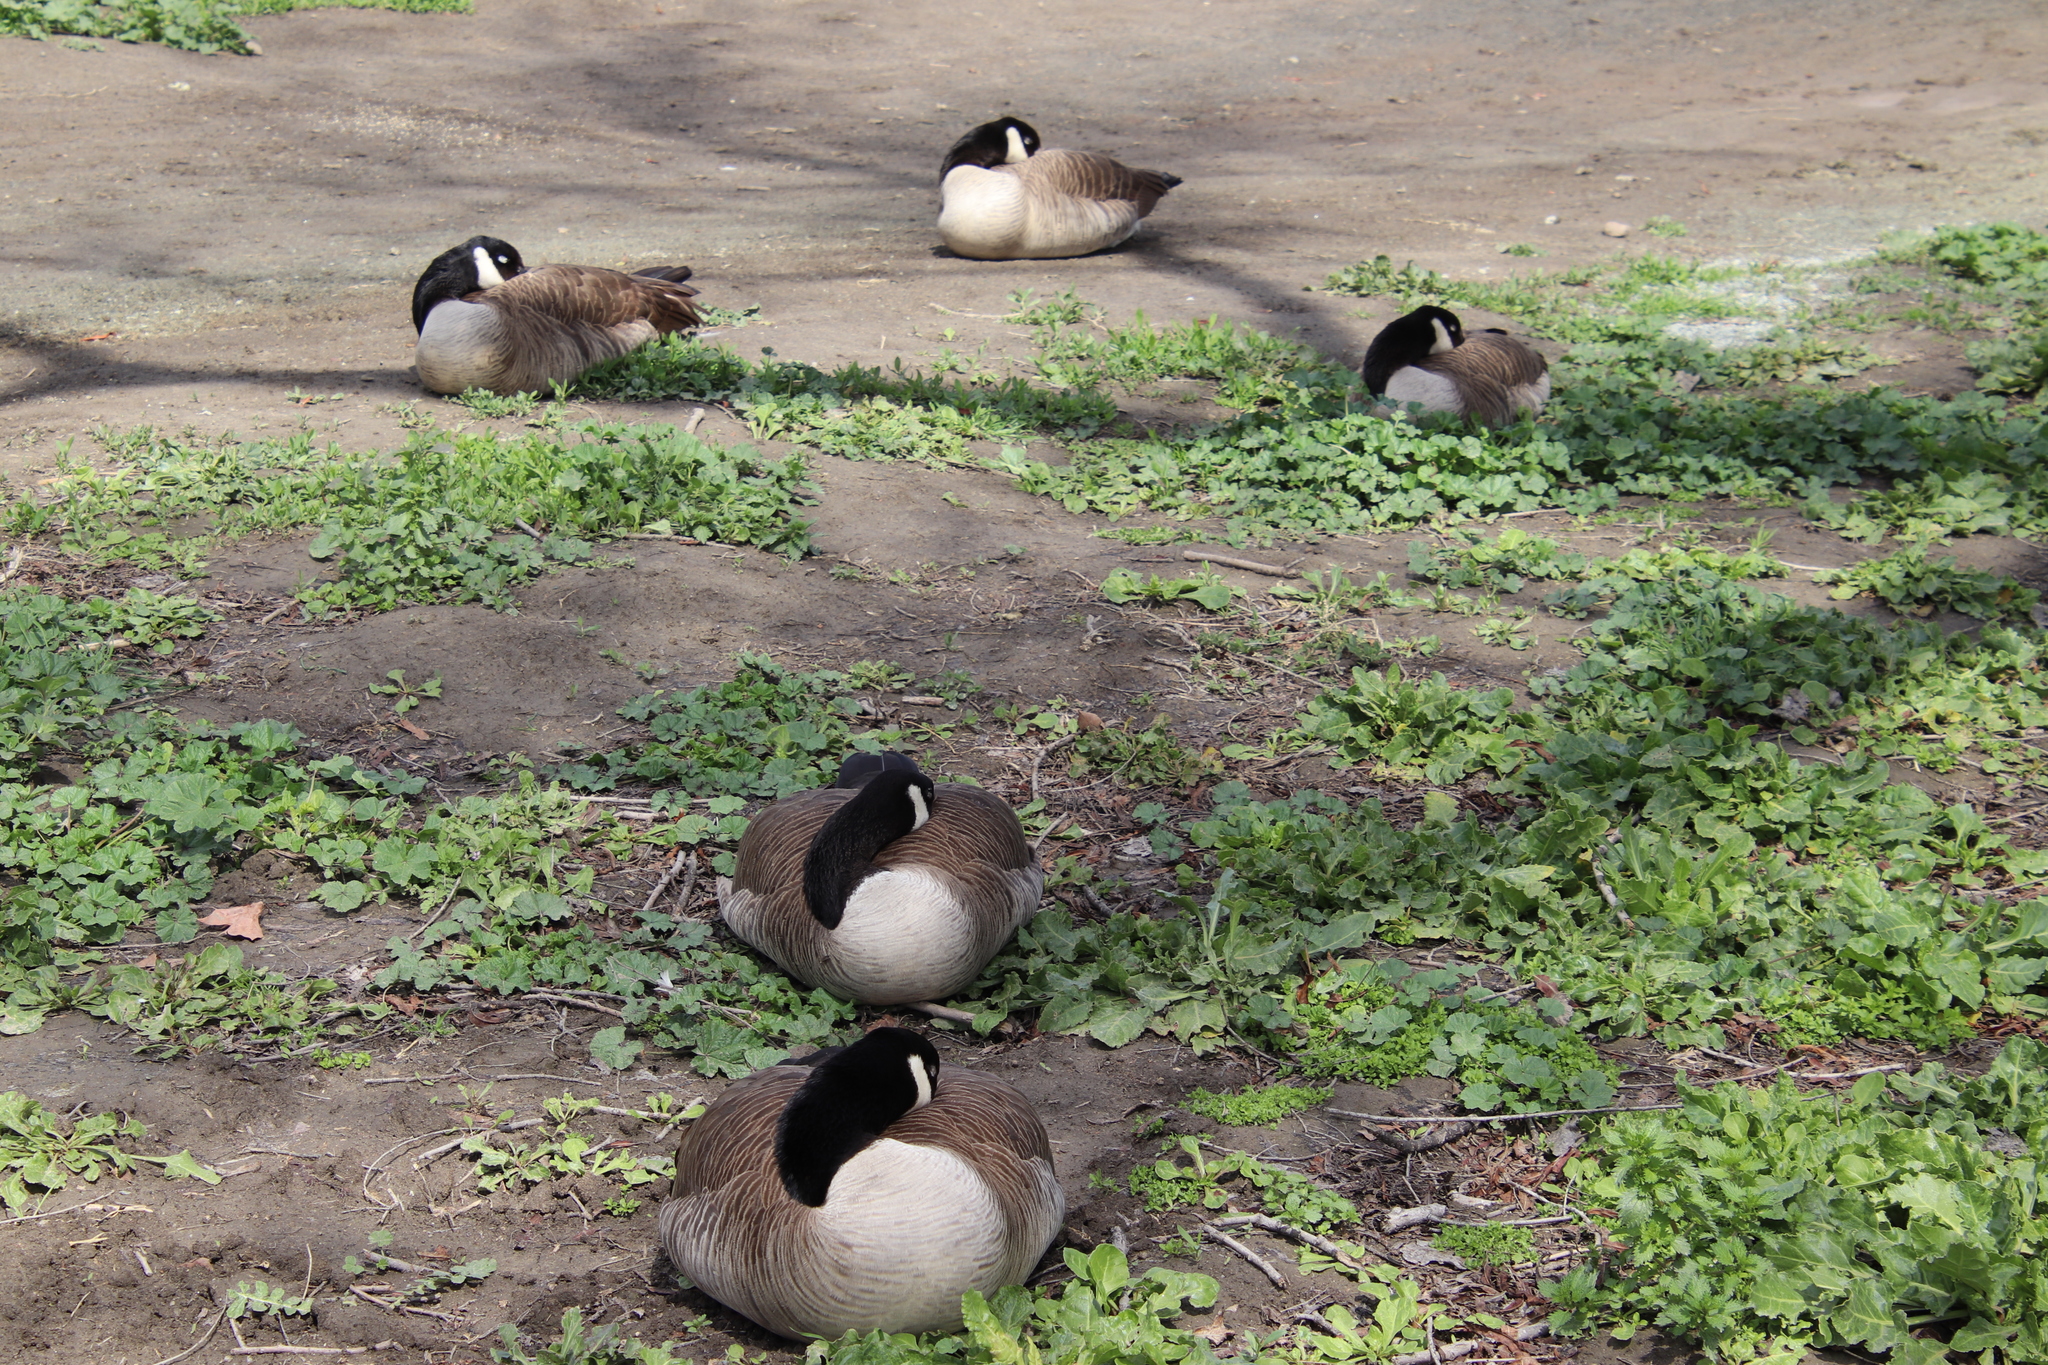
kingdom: Animalia
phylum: Chordata
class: Aves
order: Anseriformes
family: Anatidae
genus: Branta
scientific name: Branta canadensis
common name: Canada goose
